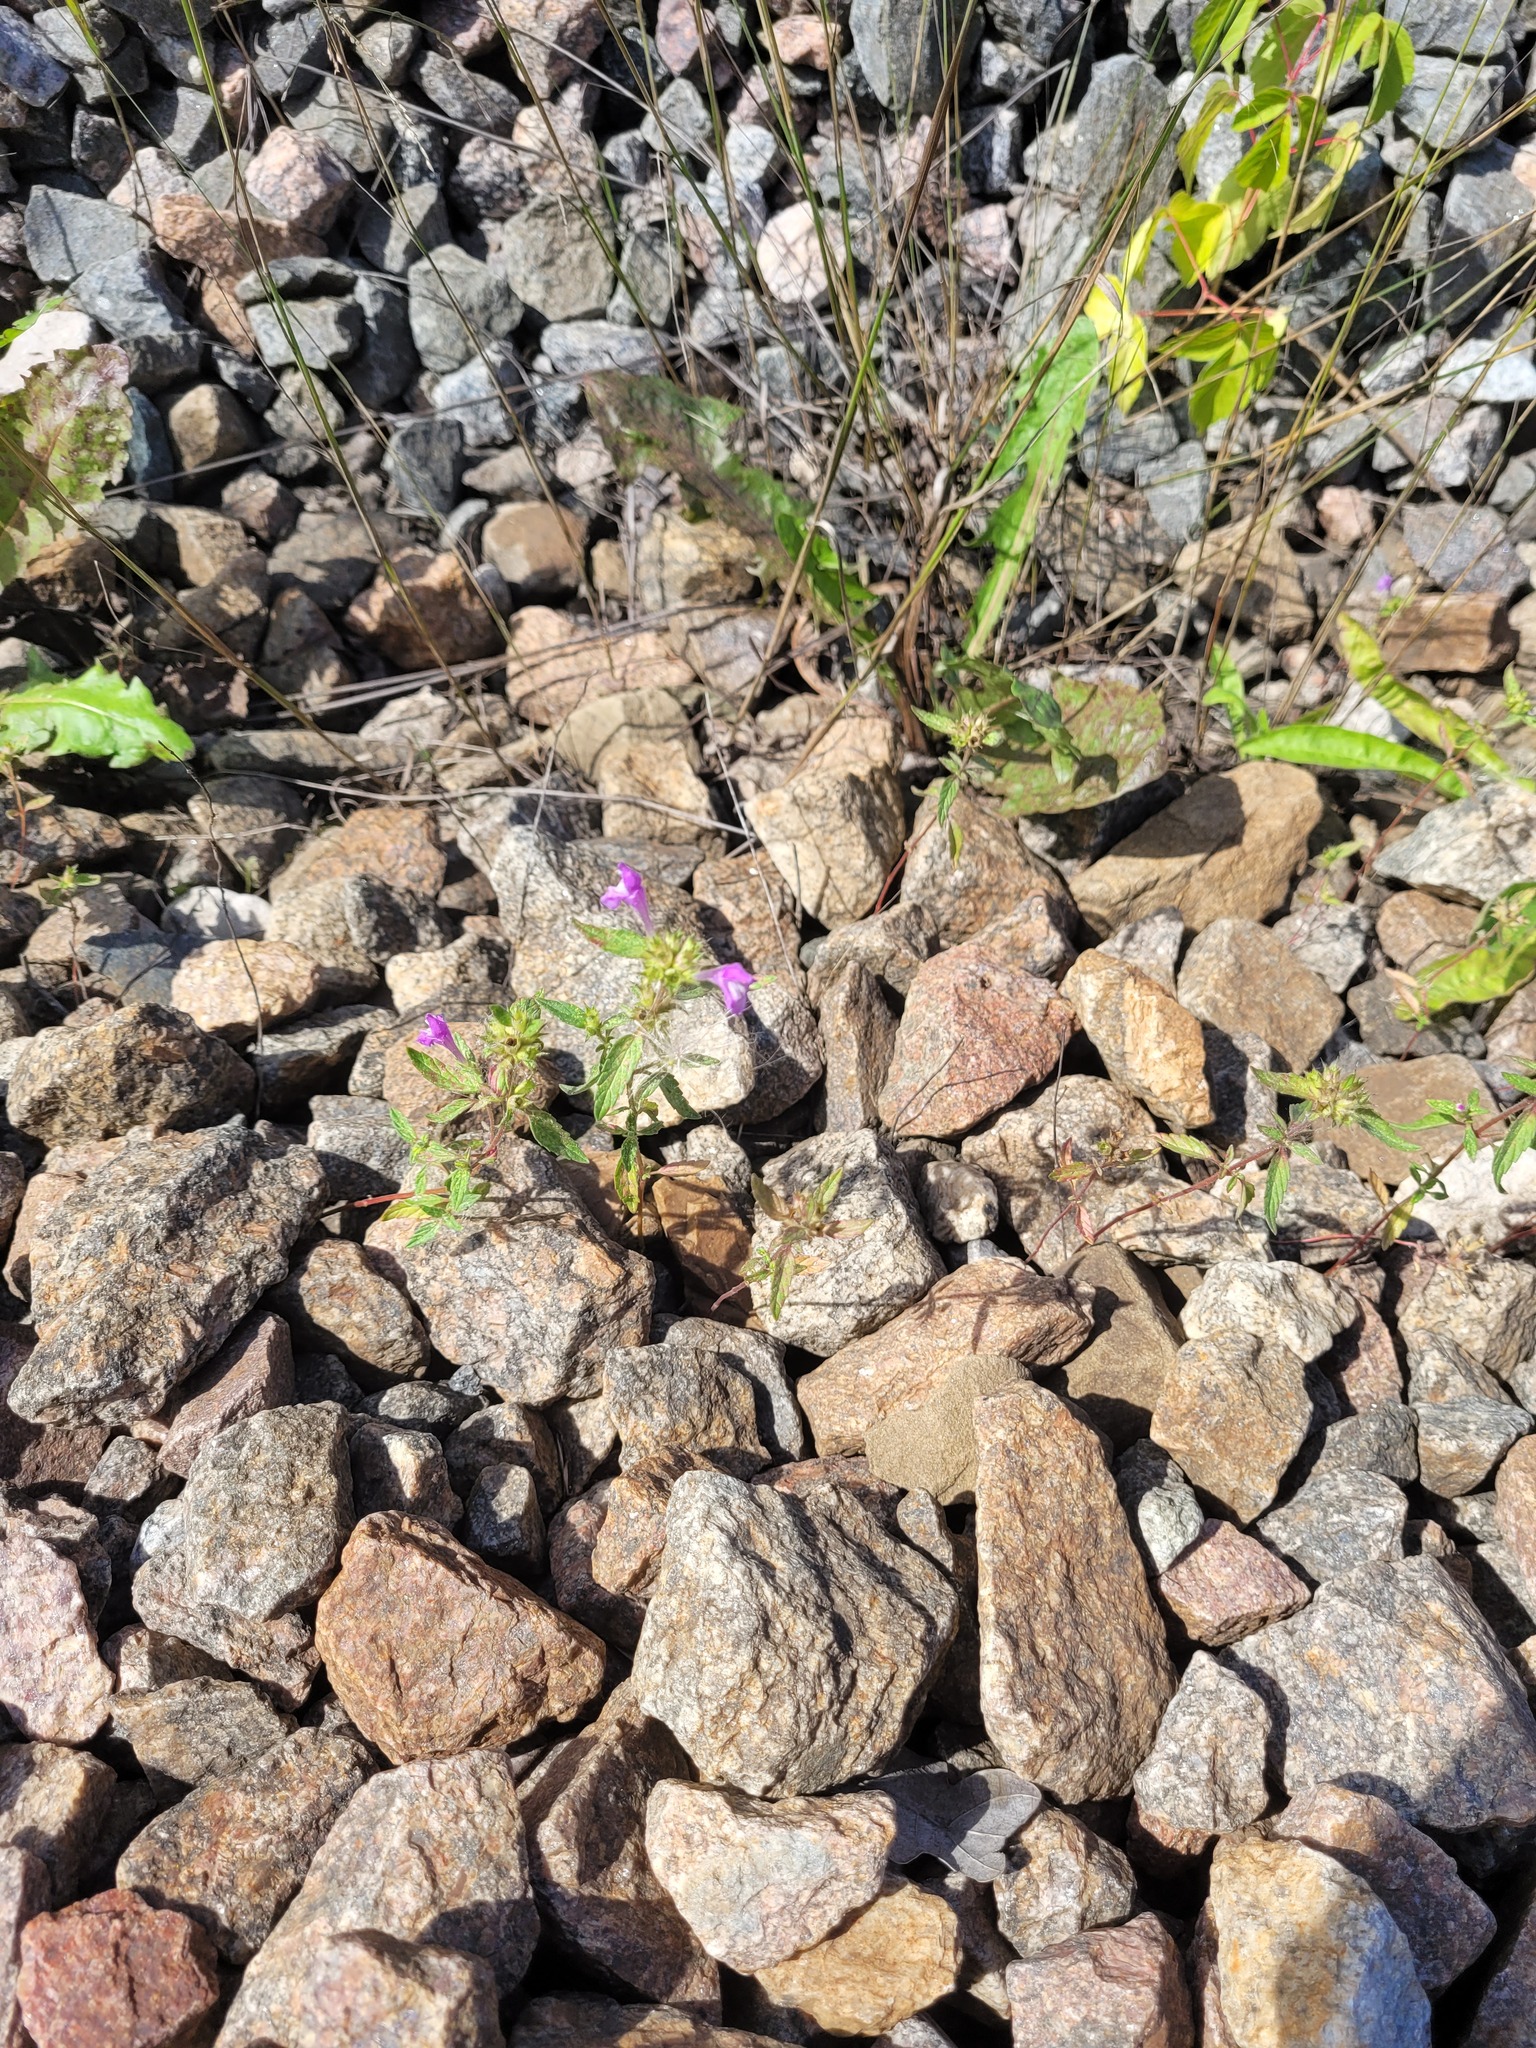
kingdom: Plantae
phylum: Tracheophyta
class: Magnoliopsida
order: Lamiales
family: Lamiaceae
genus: Galeopsis
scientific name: Galeopsis ladanum
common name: Broad-leaved hemp-nettle
